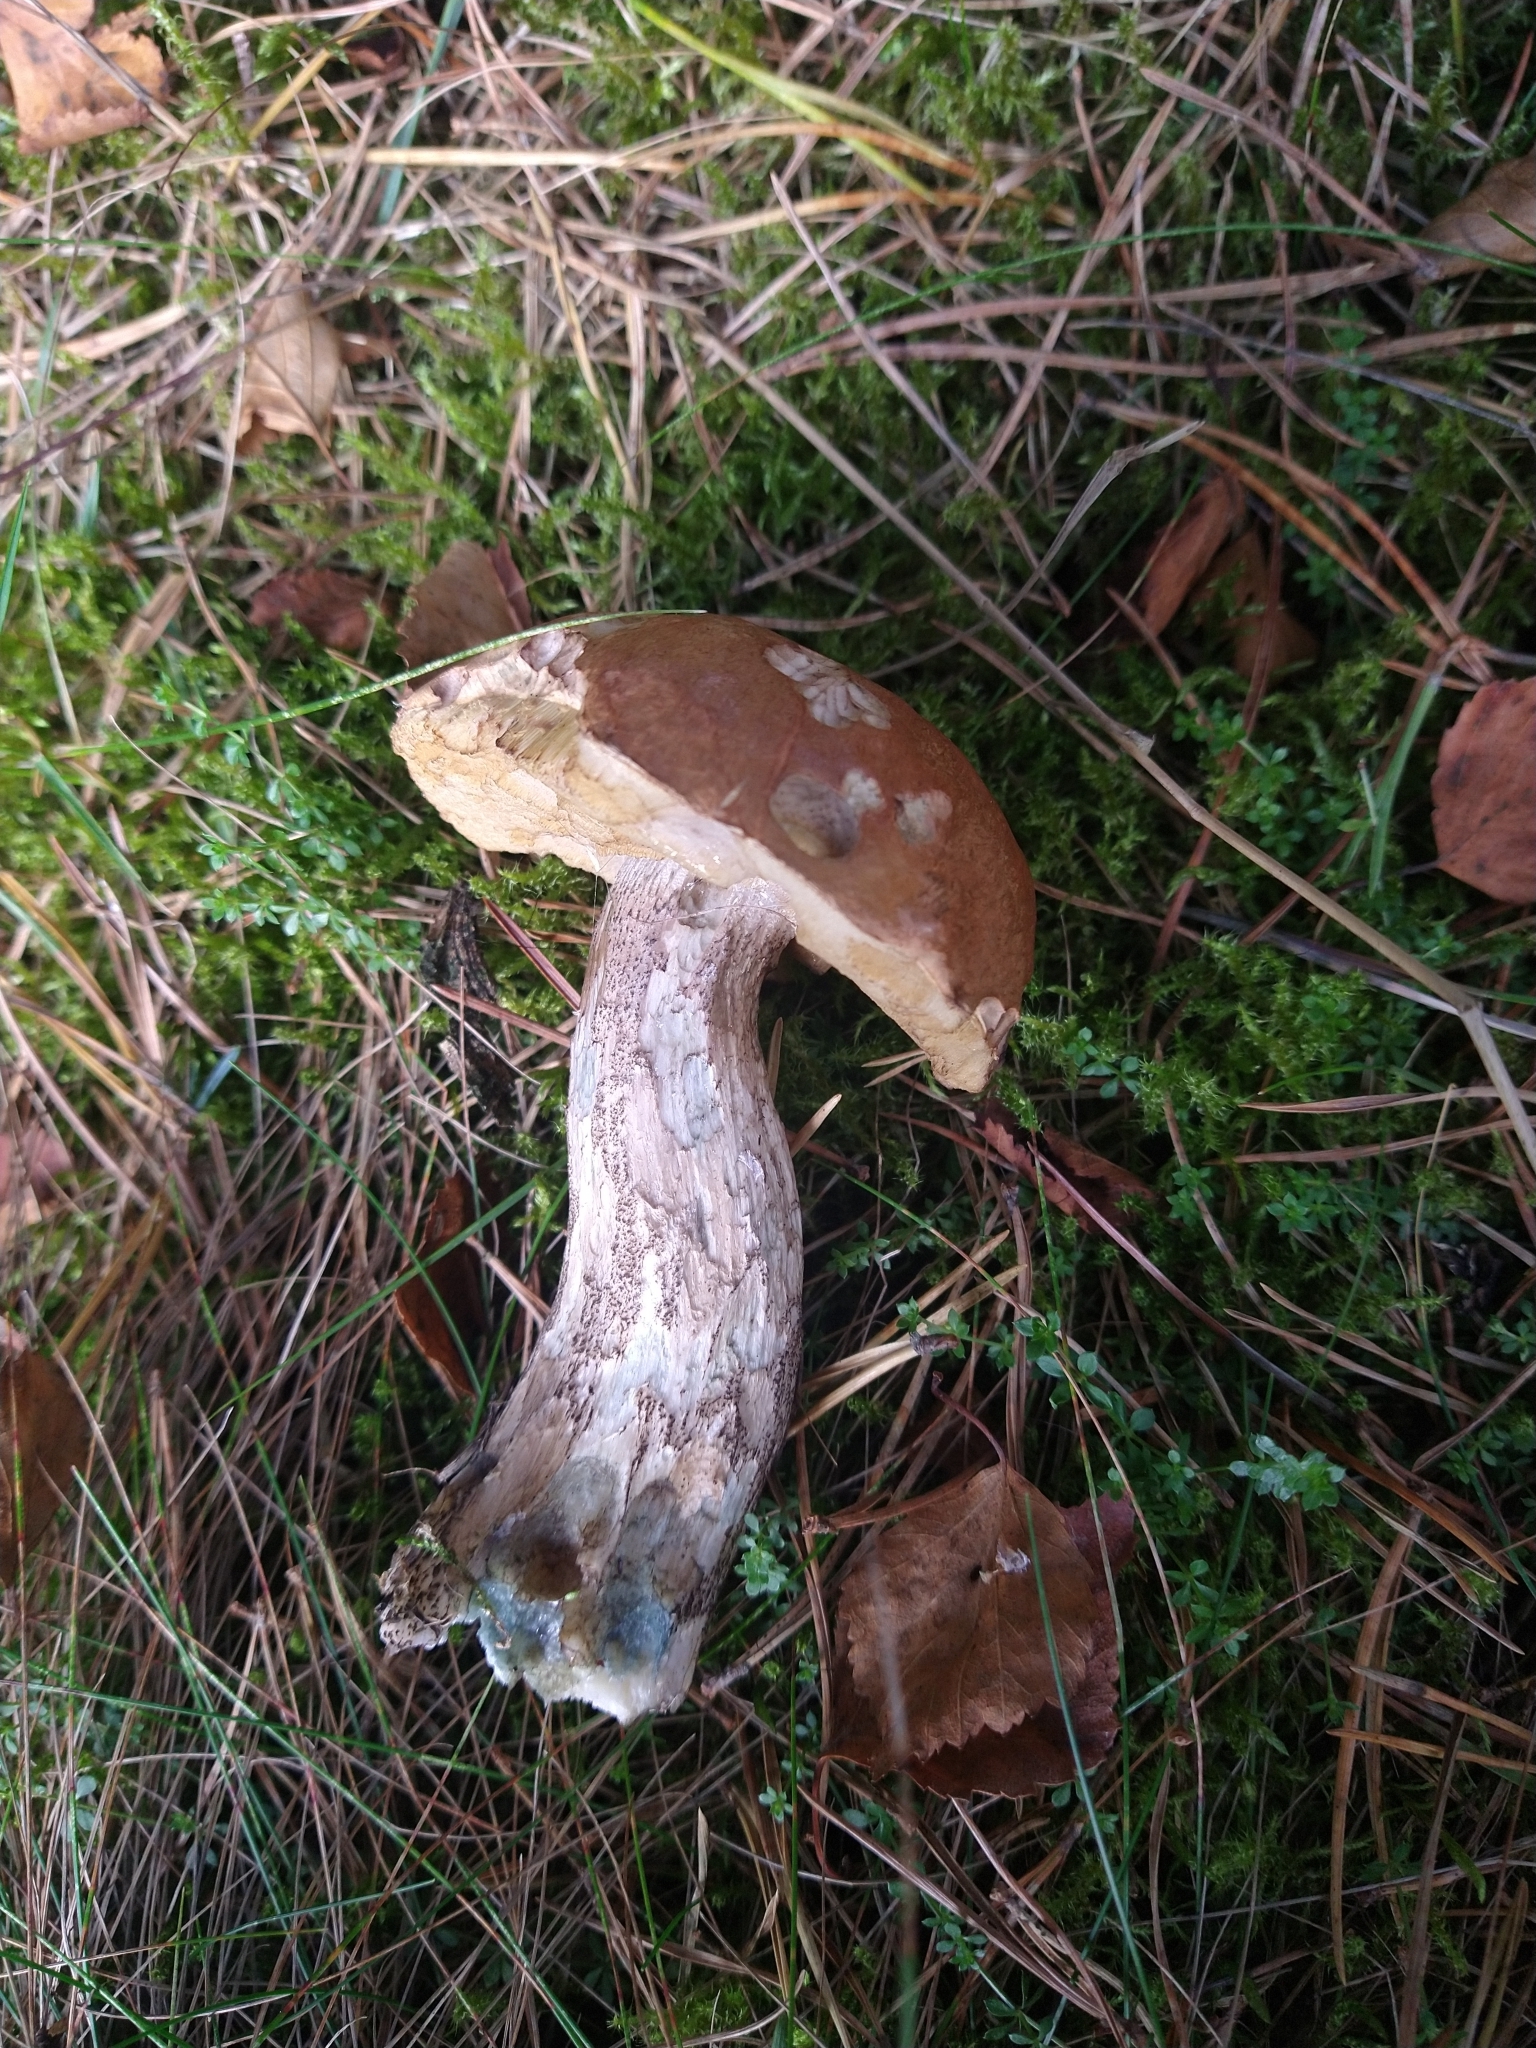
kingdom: Fungi
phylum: Basidiomycota
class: Agaricomycetes
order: Boletales
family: Boletaceae
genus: Leccinum
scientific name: Leccinum versipelle
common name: Orange birch bolete
